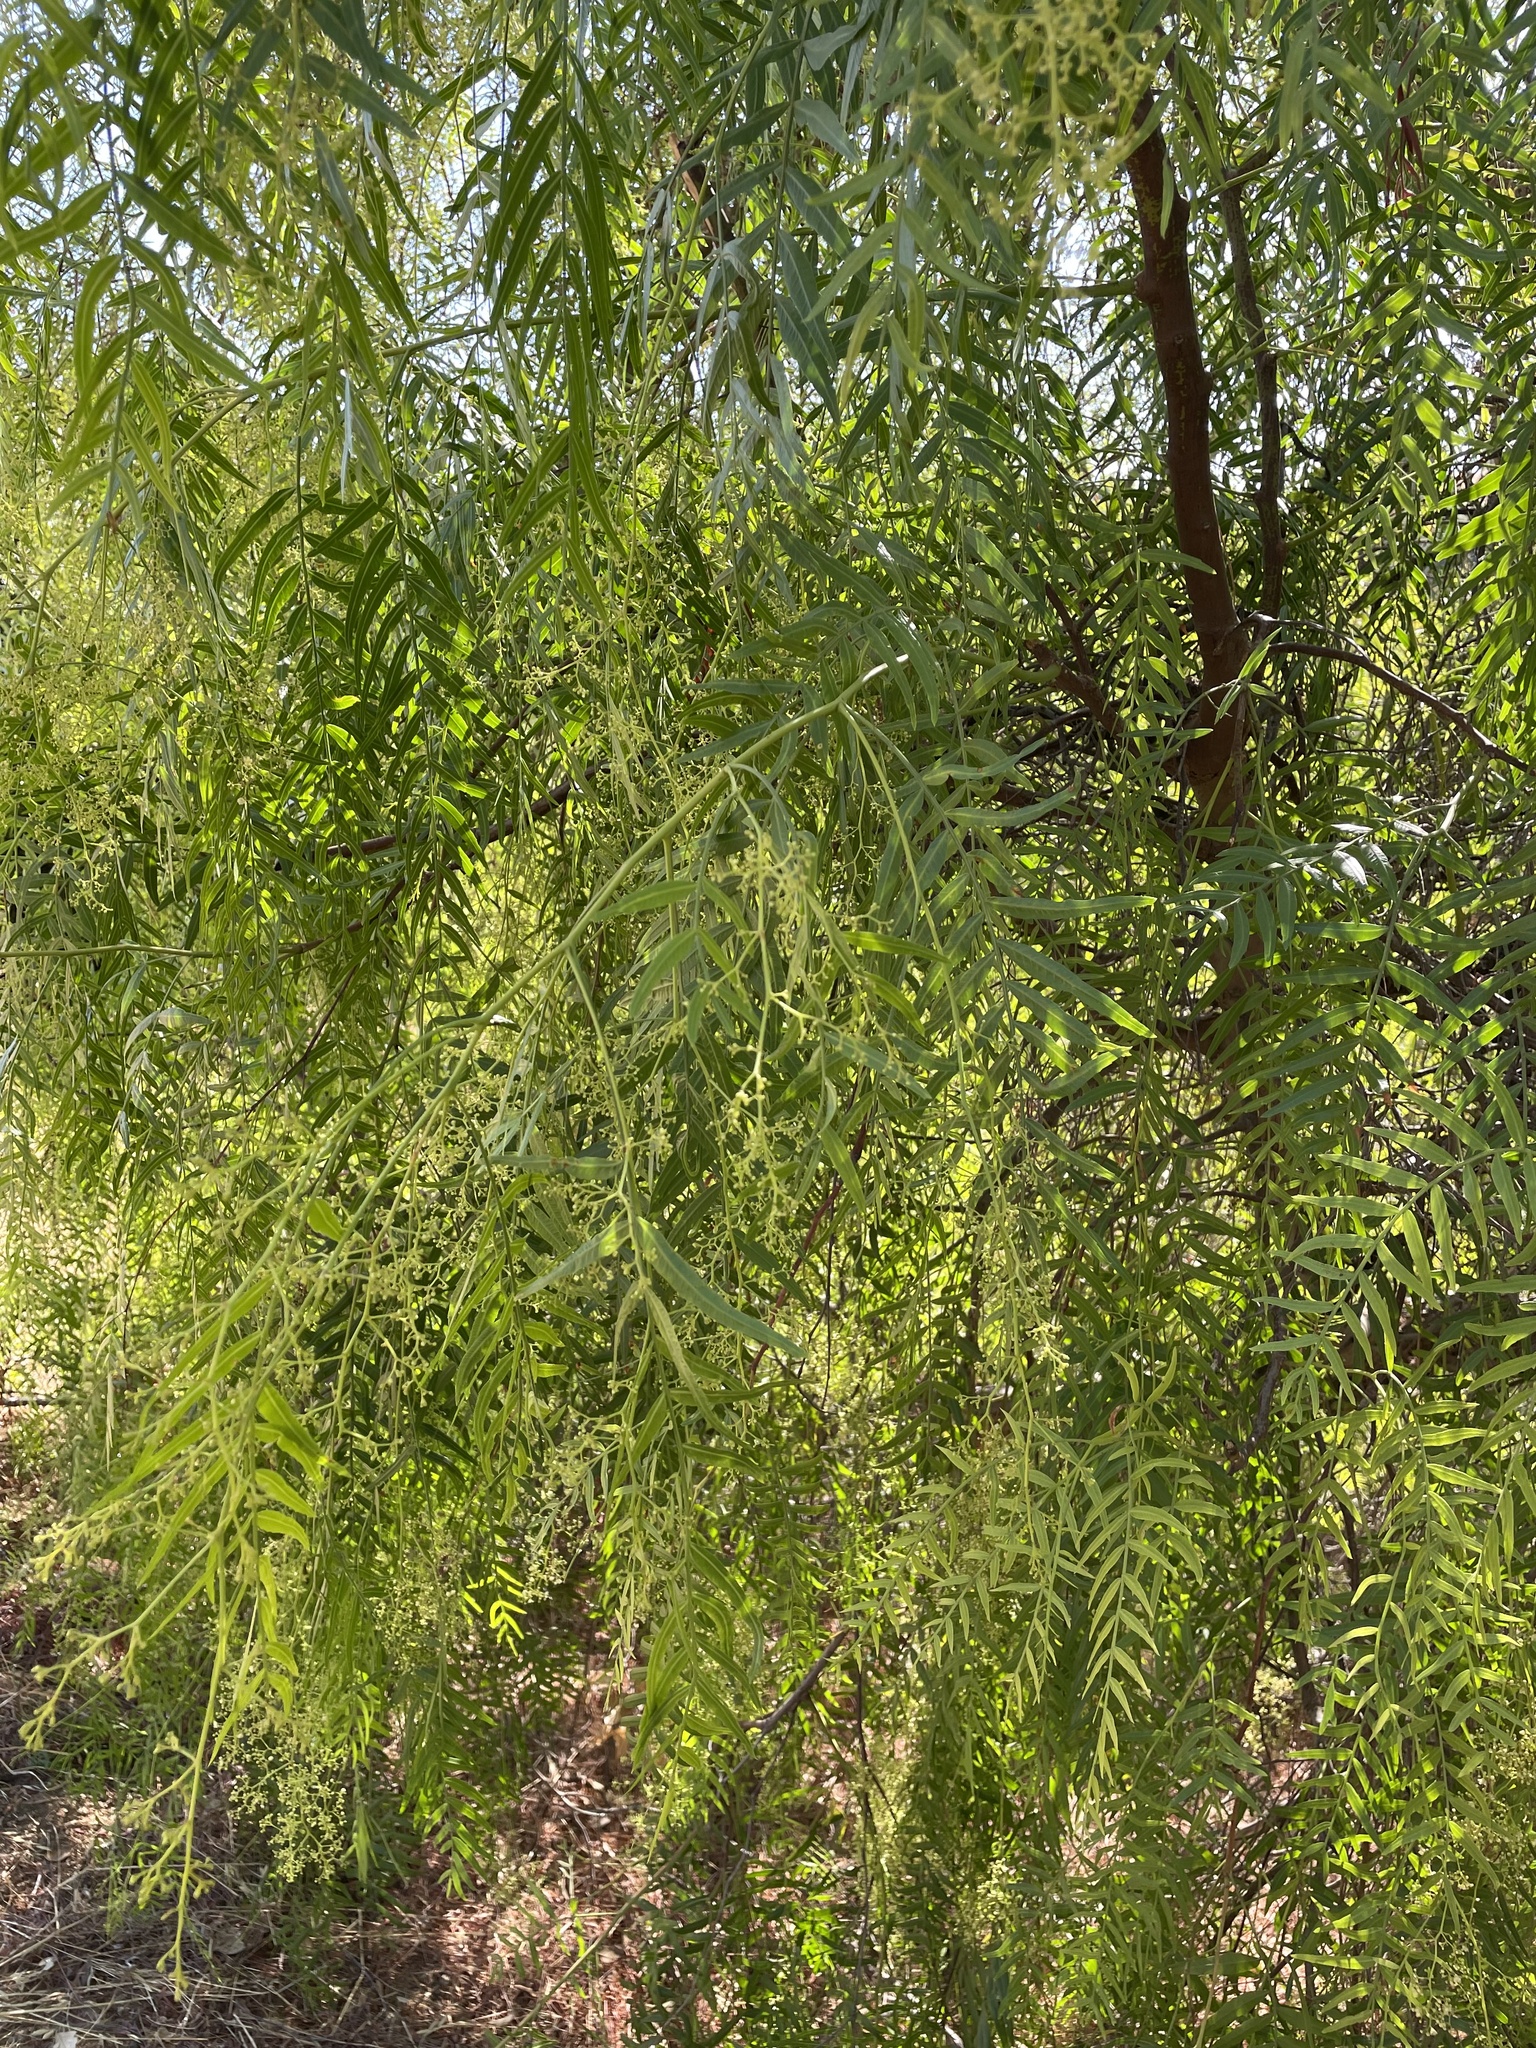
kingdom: Plantae
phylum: Tracheophyta
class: Magnoliopsida
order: Sapindales
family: Anacardiaceae
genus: Schinus
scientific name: Schinus molle
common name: Peruvian peppertree
